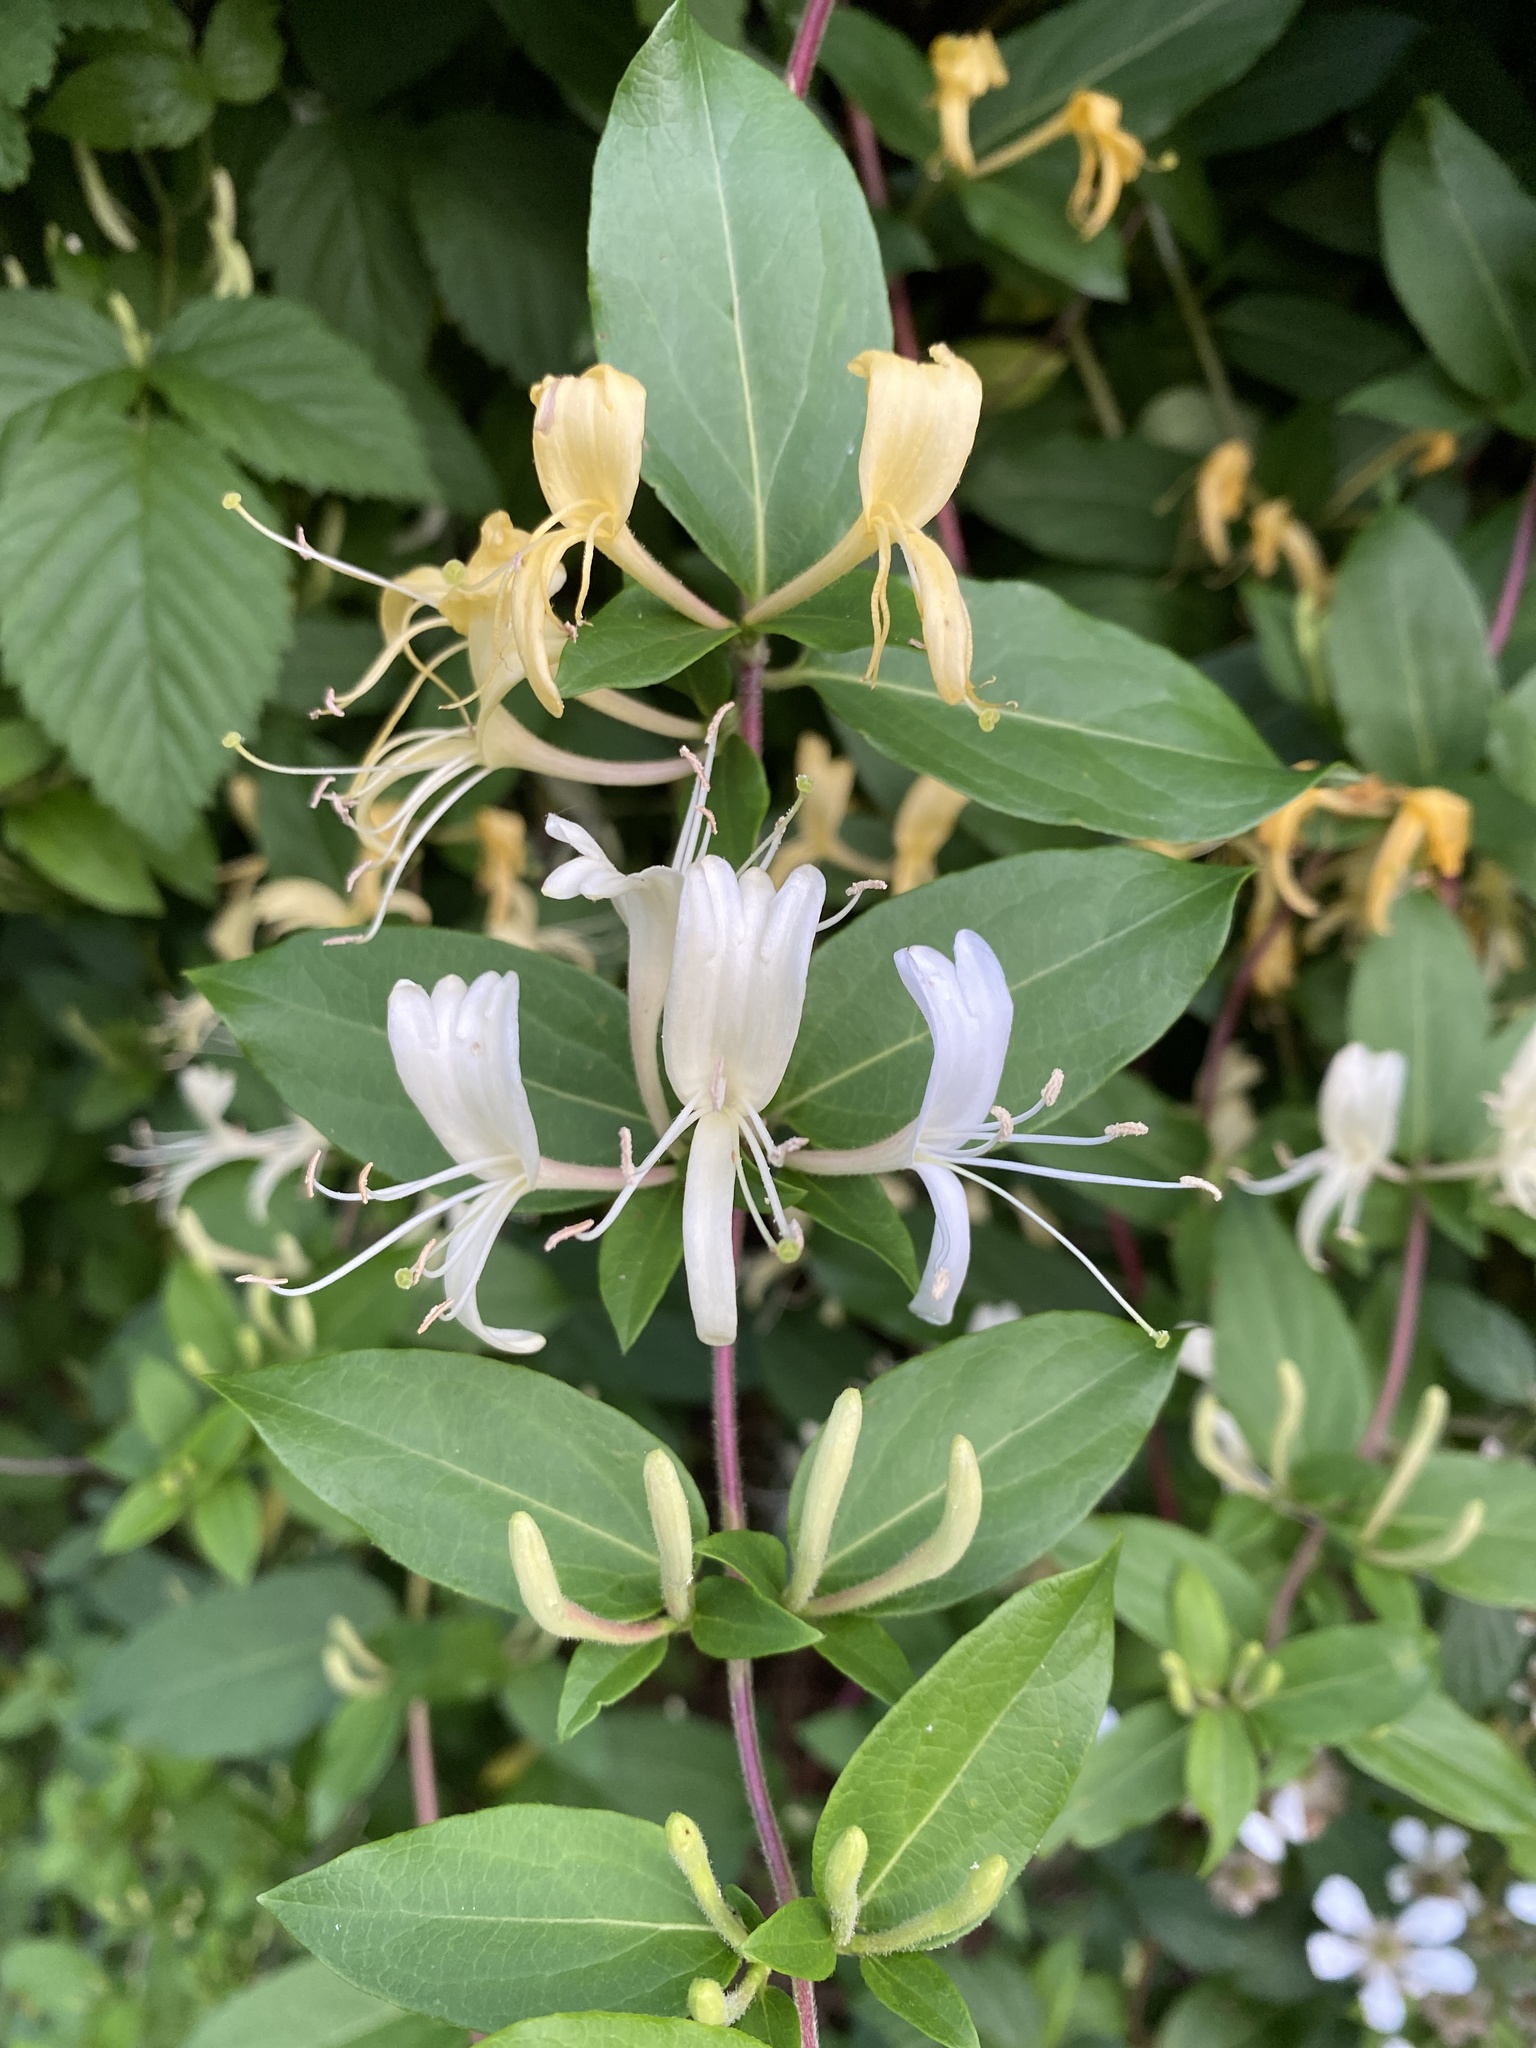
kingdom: Plantae
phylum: Tracheophyta
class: Magnoliopsida
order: Dipsacales
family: Caprifoliaceae
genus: Lonicera
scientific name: Lonicera japonica
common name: Japanese honeysuckle
